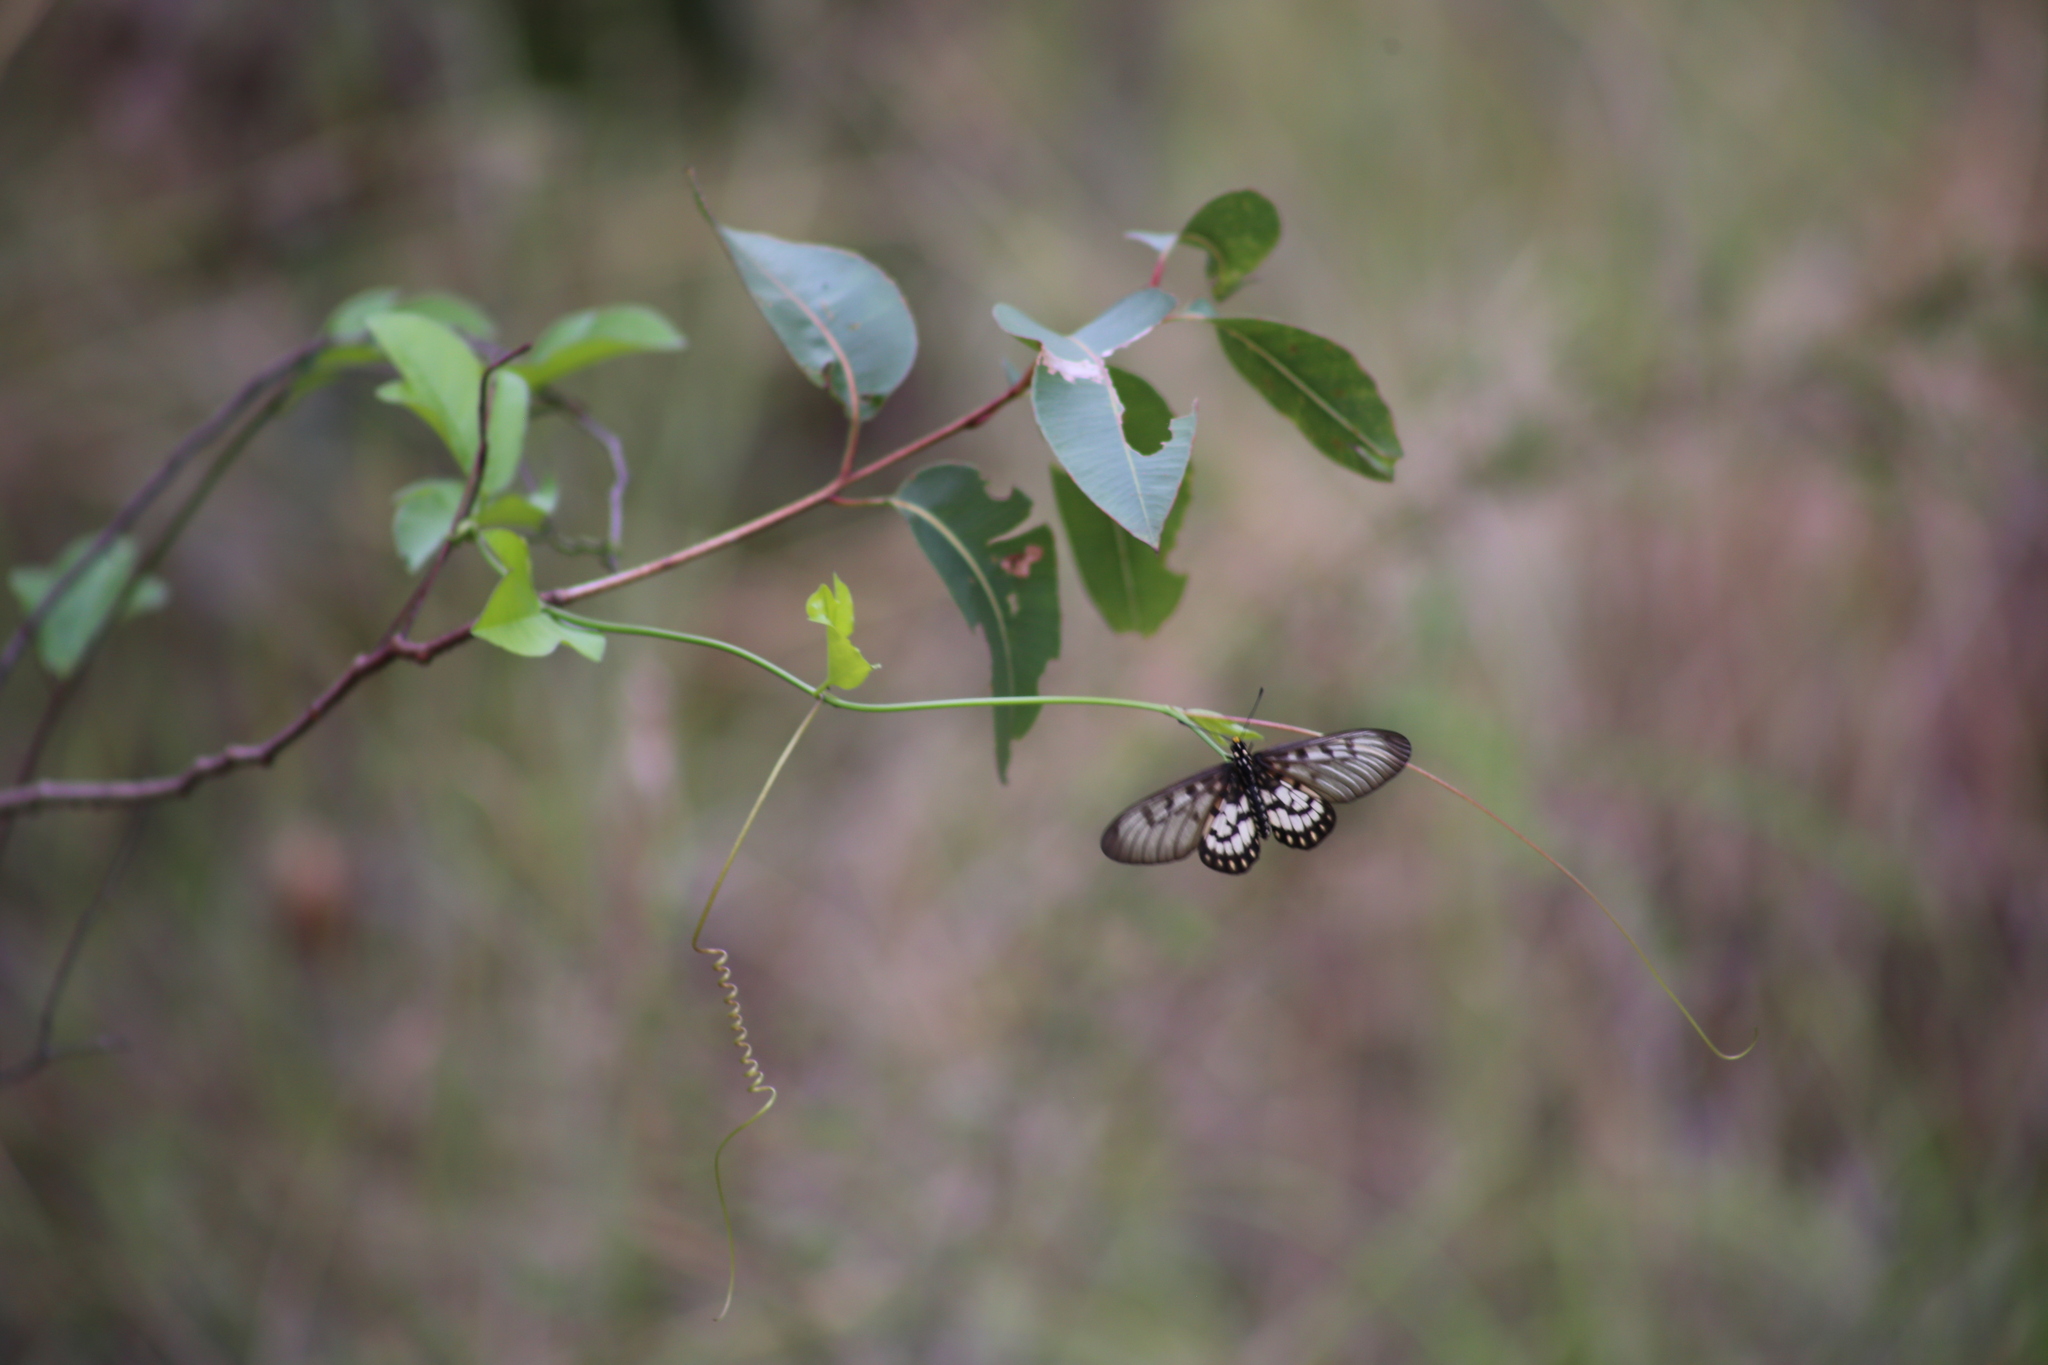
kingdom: Animalia
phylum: Arthropoda
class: Insecta
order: Lepidoptera
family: Nymphalidae
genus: Acraea
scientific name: Acraea andromacha
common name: Glasswing
